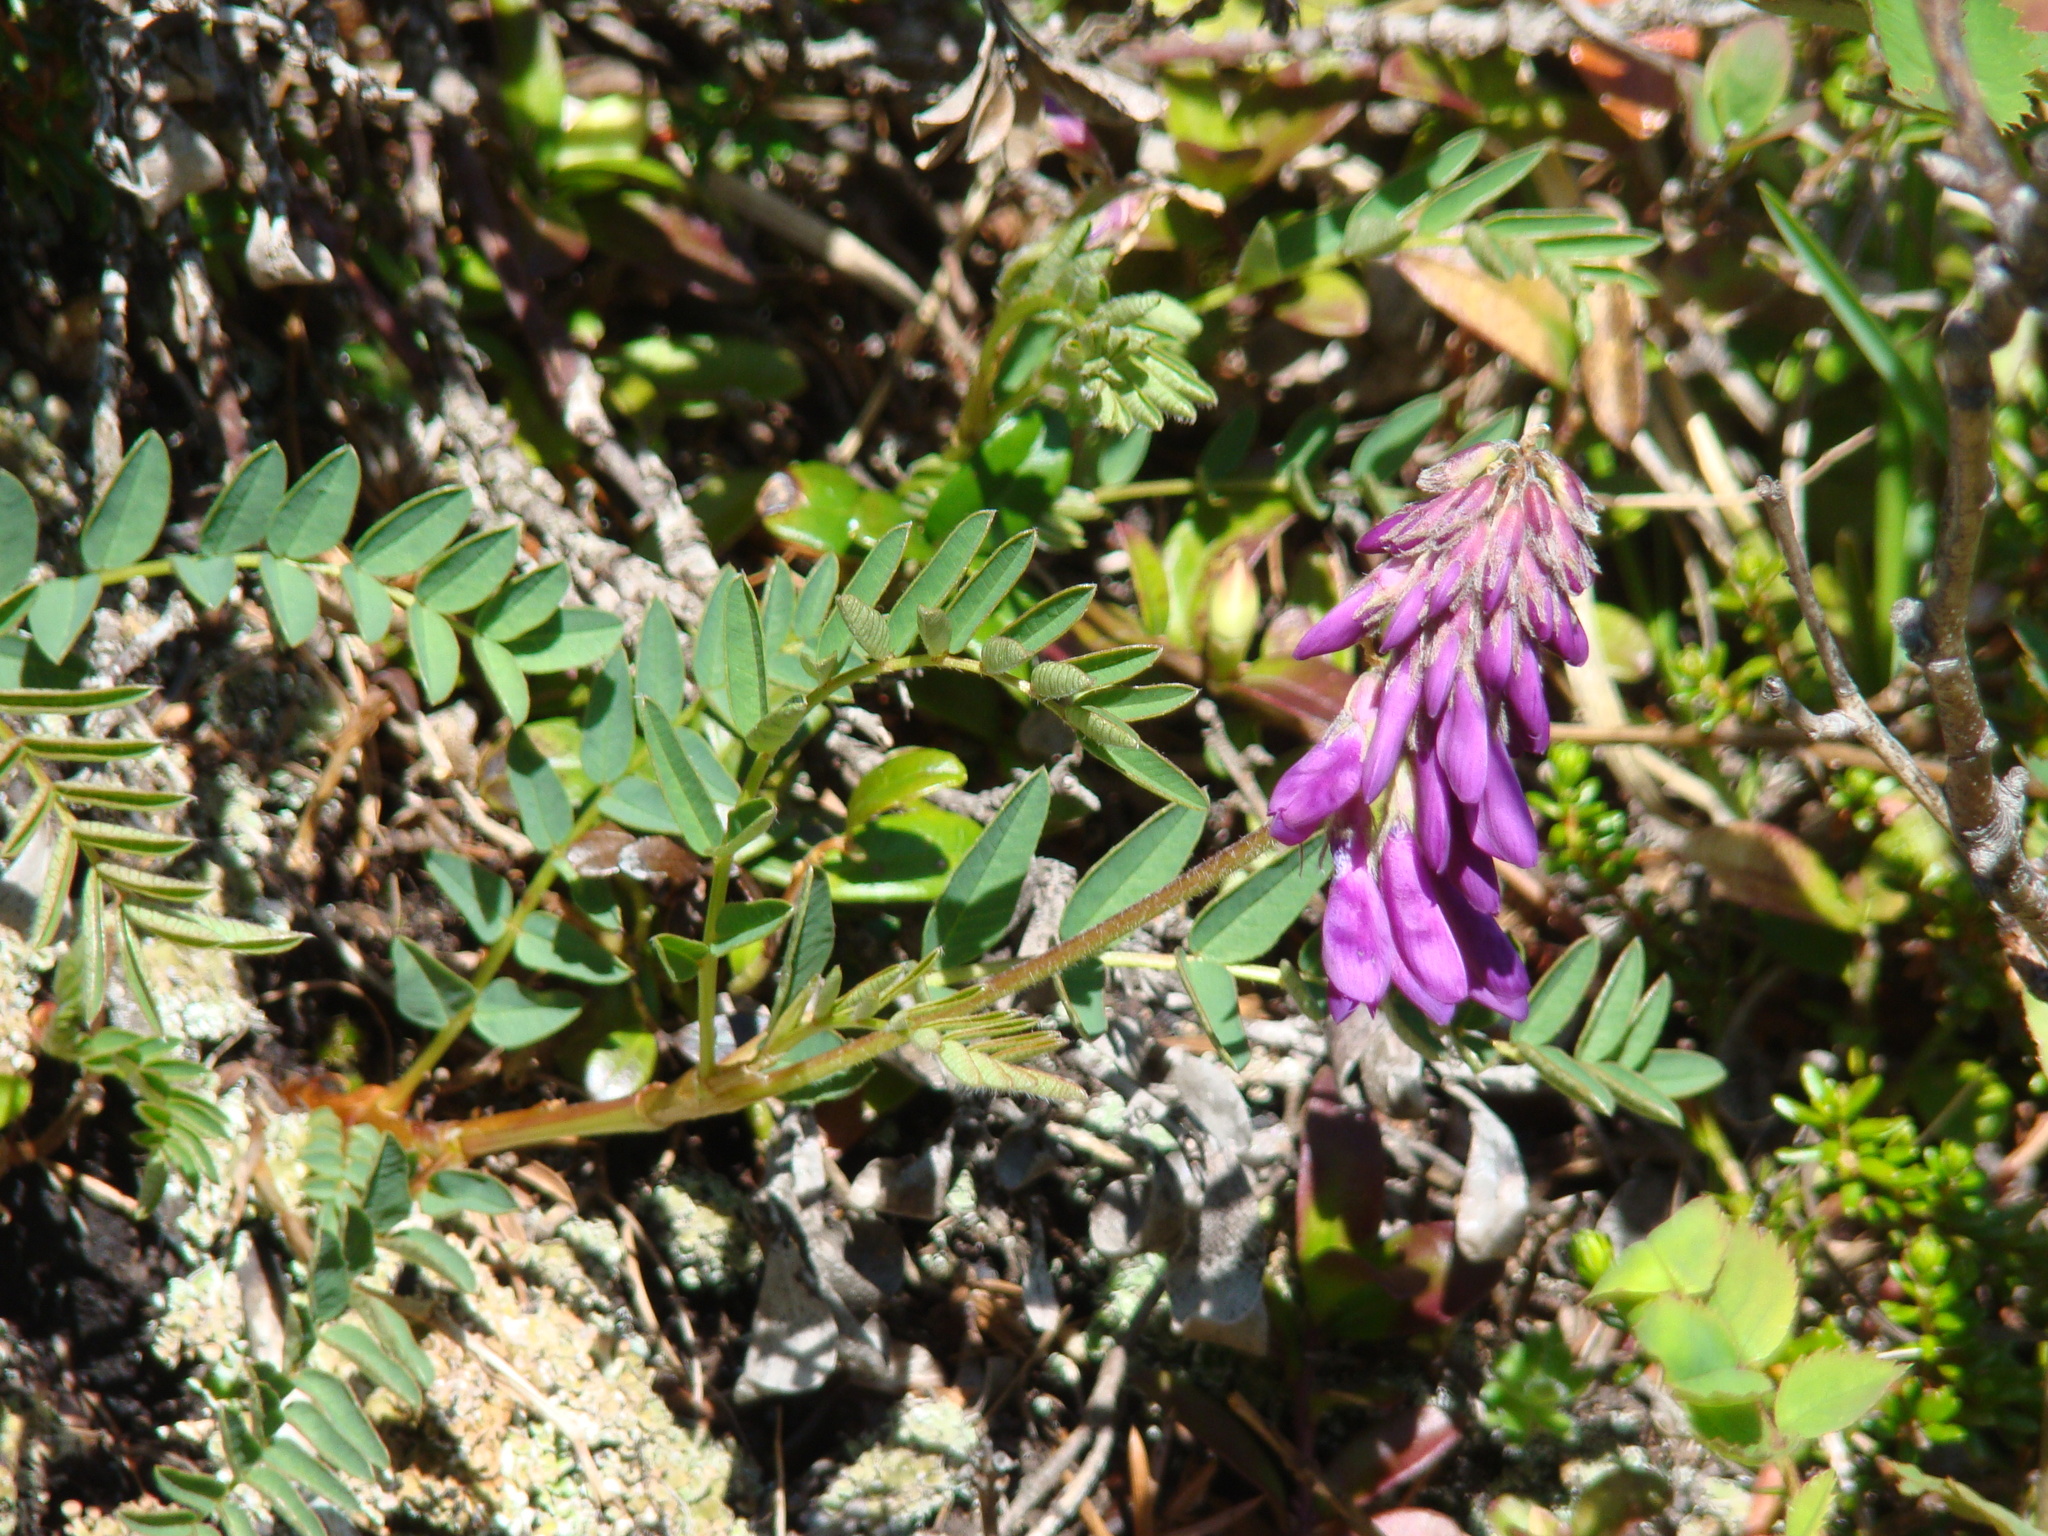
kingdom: Plantae
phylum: Tracheophyta
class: Magnoliopsida
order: Fabales
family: Fabaceae
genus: Hedysarum
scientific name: Hedysarum hedysaroides
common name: Alpine french-honeysuckle
